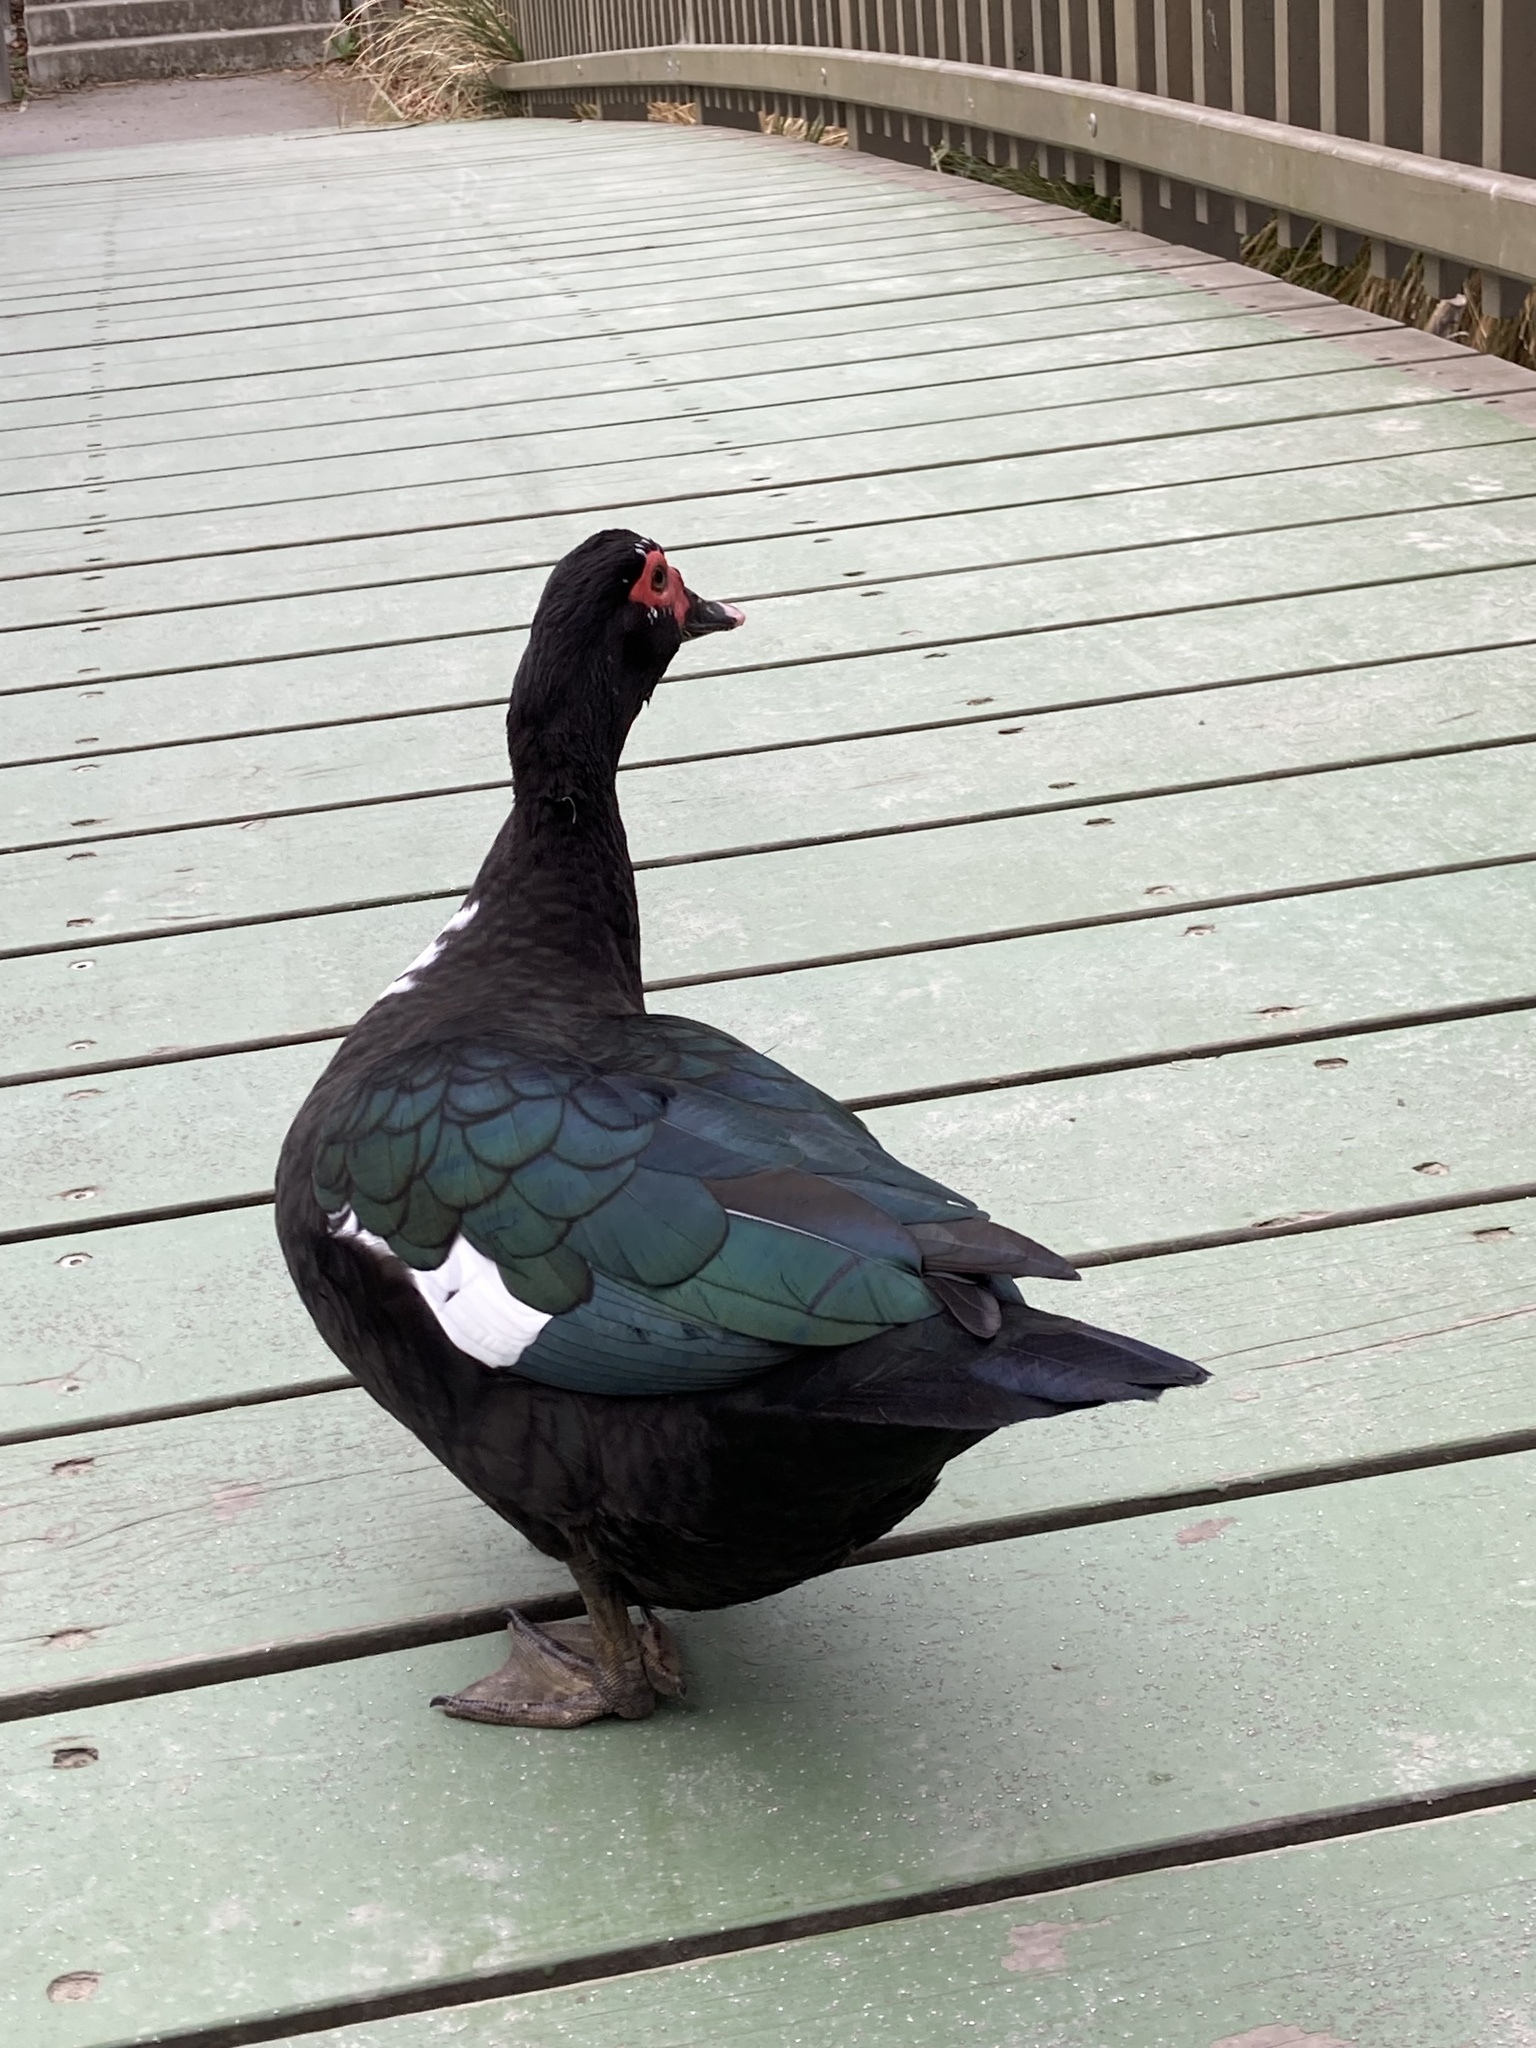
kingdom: Animalia
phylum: Chordata
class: Aves
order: Anseriformes
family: Anatidae
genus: Cairina
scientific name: Cairina moschata
